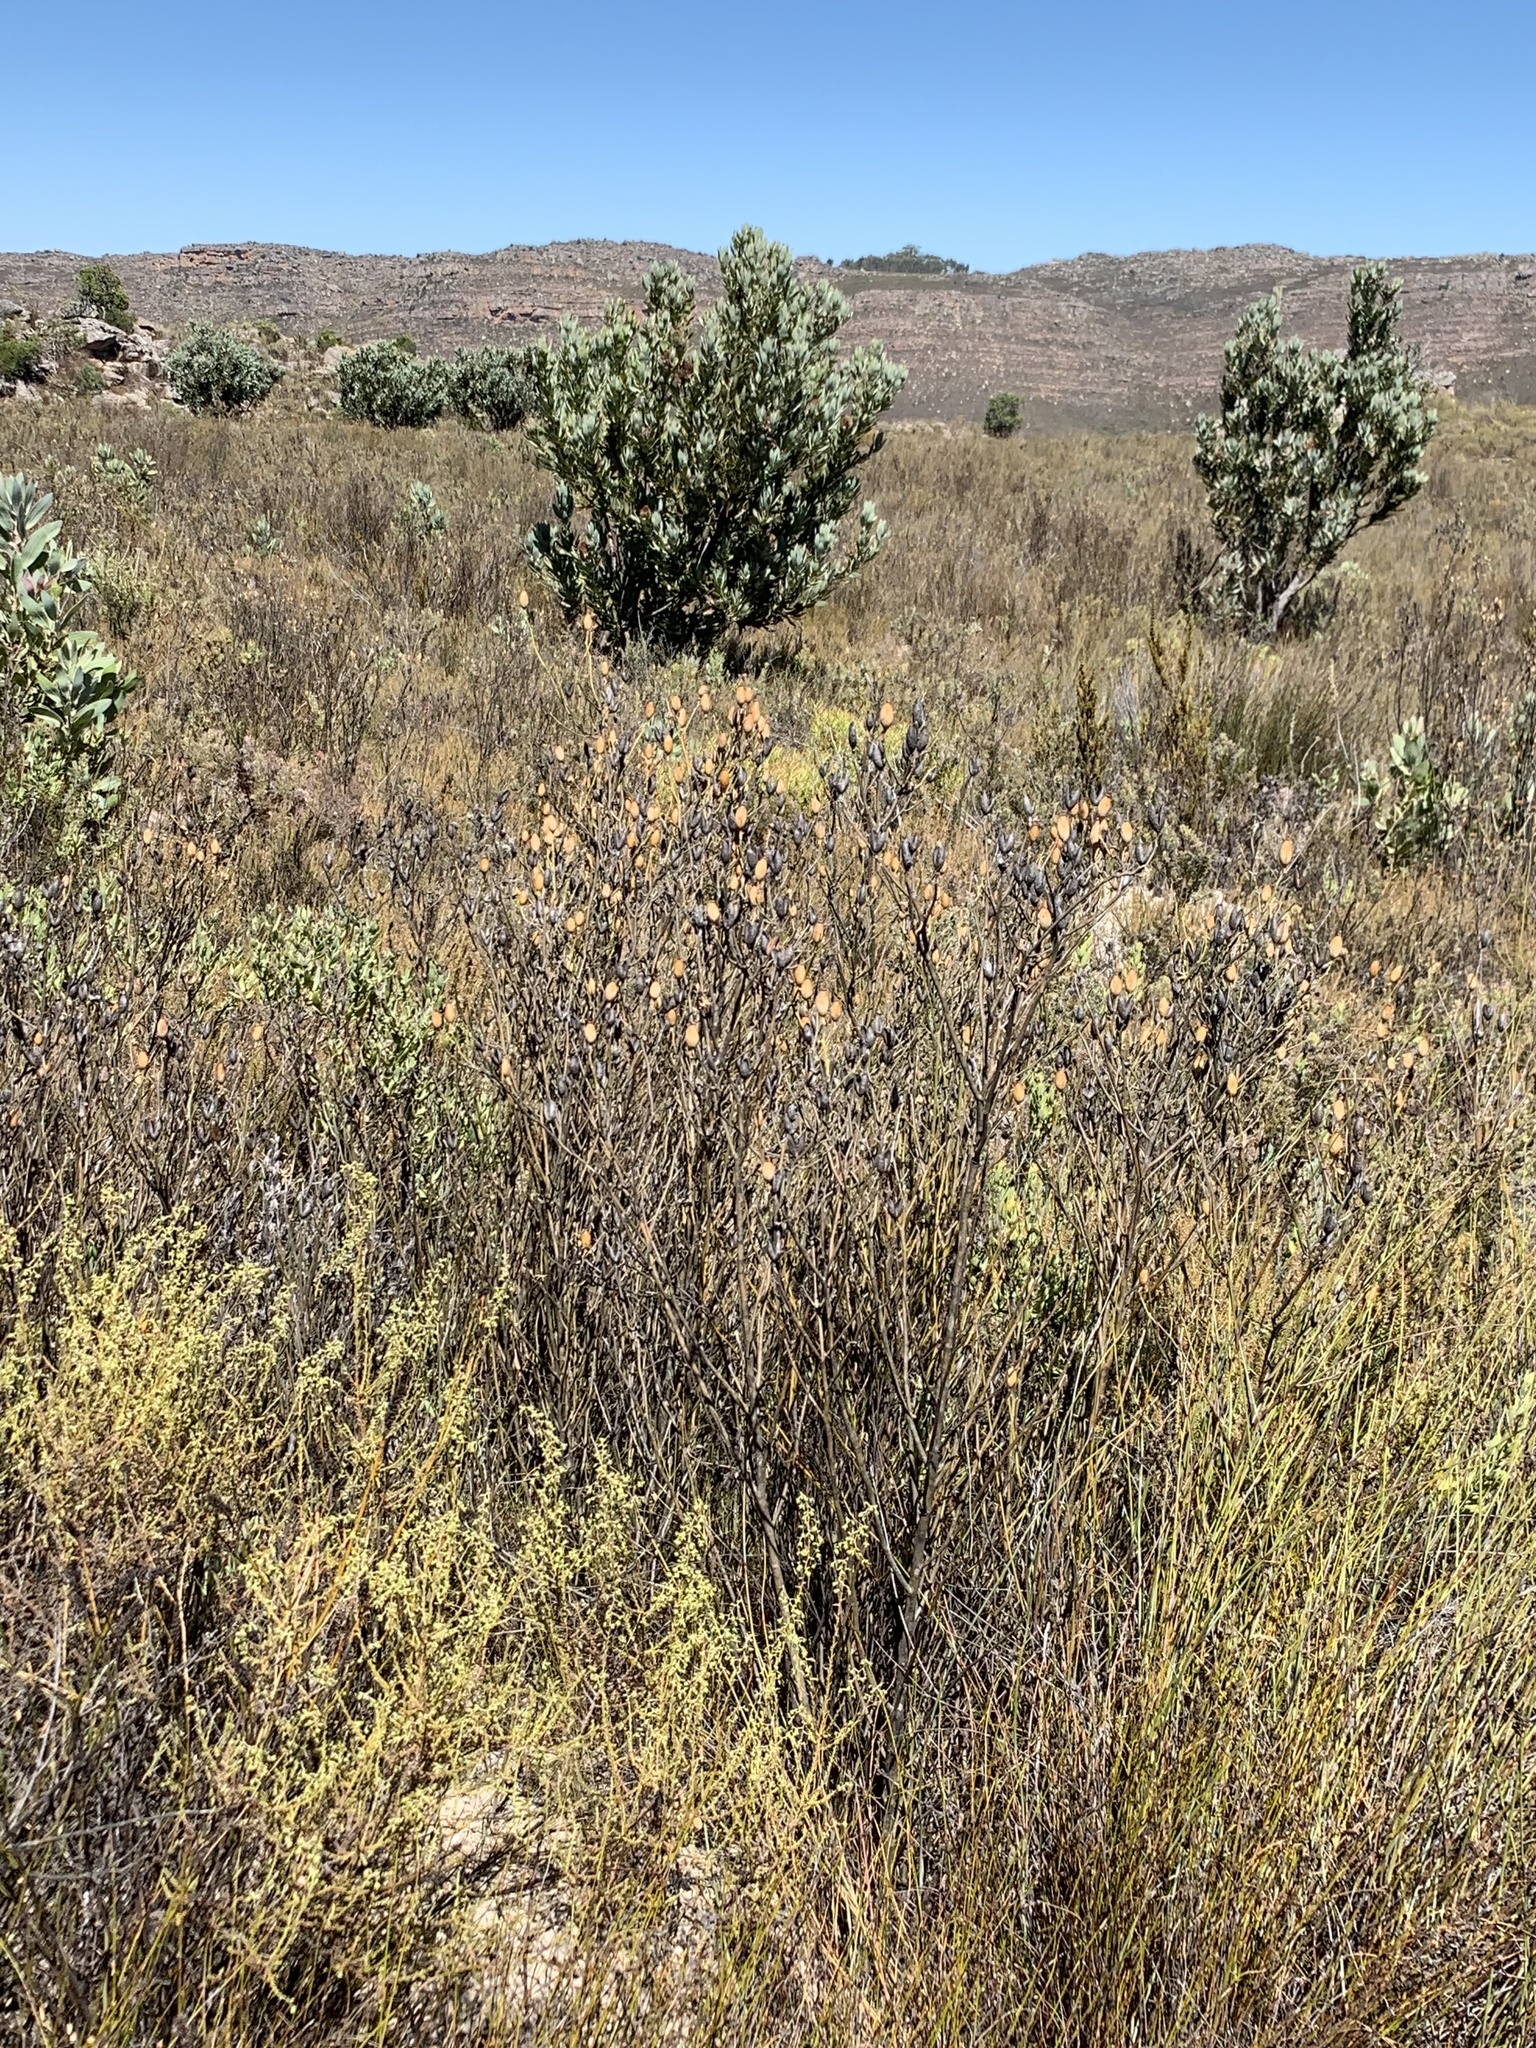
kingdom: Plantae
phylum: Tracheophyta
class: Magnoliopsida
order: Solanales
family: Montiniaceae
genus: Montinia
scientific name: Montinia caryophyllacea
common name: Wild clove-bush
